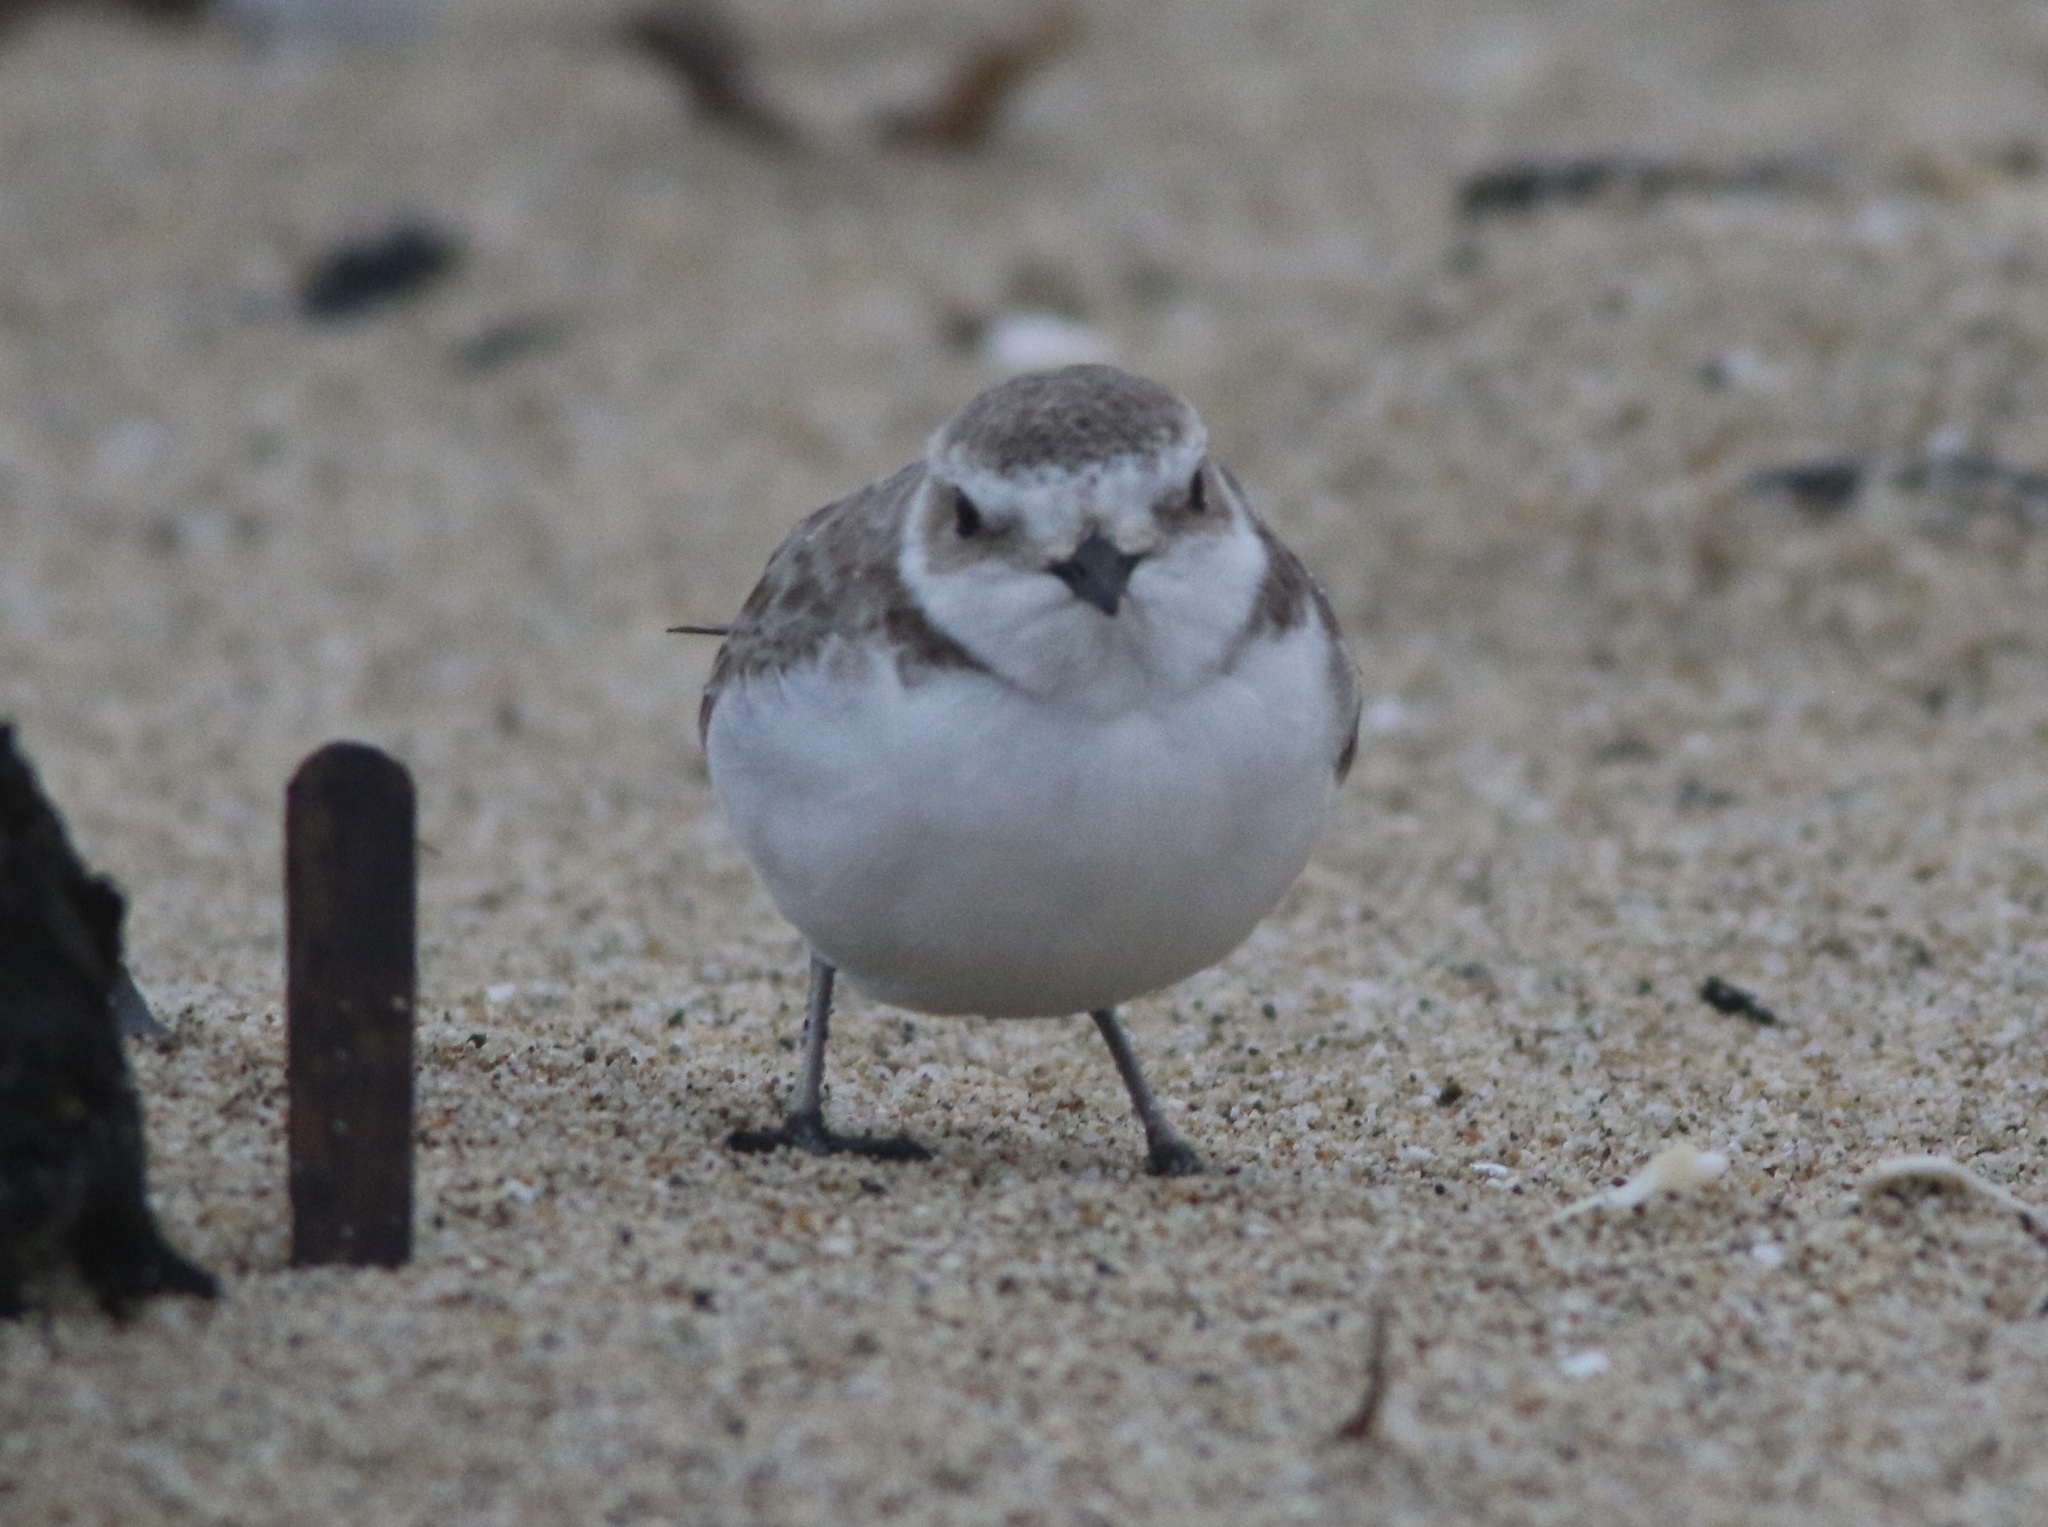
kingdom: Animalia
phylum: Chordata
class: Aves
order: Charadriiformes
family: Charadriidae
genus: Anarhynchus
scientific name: Anarhynchus
